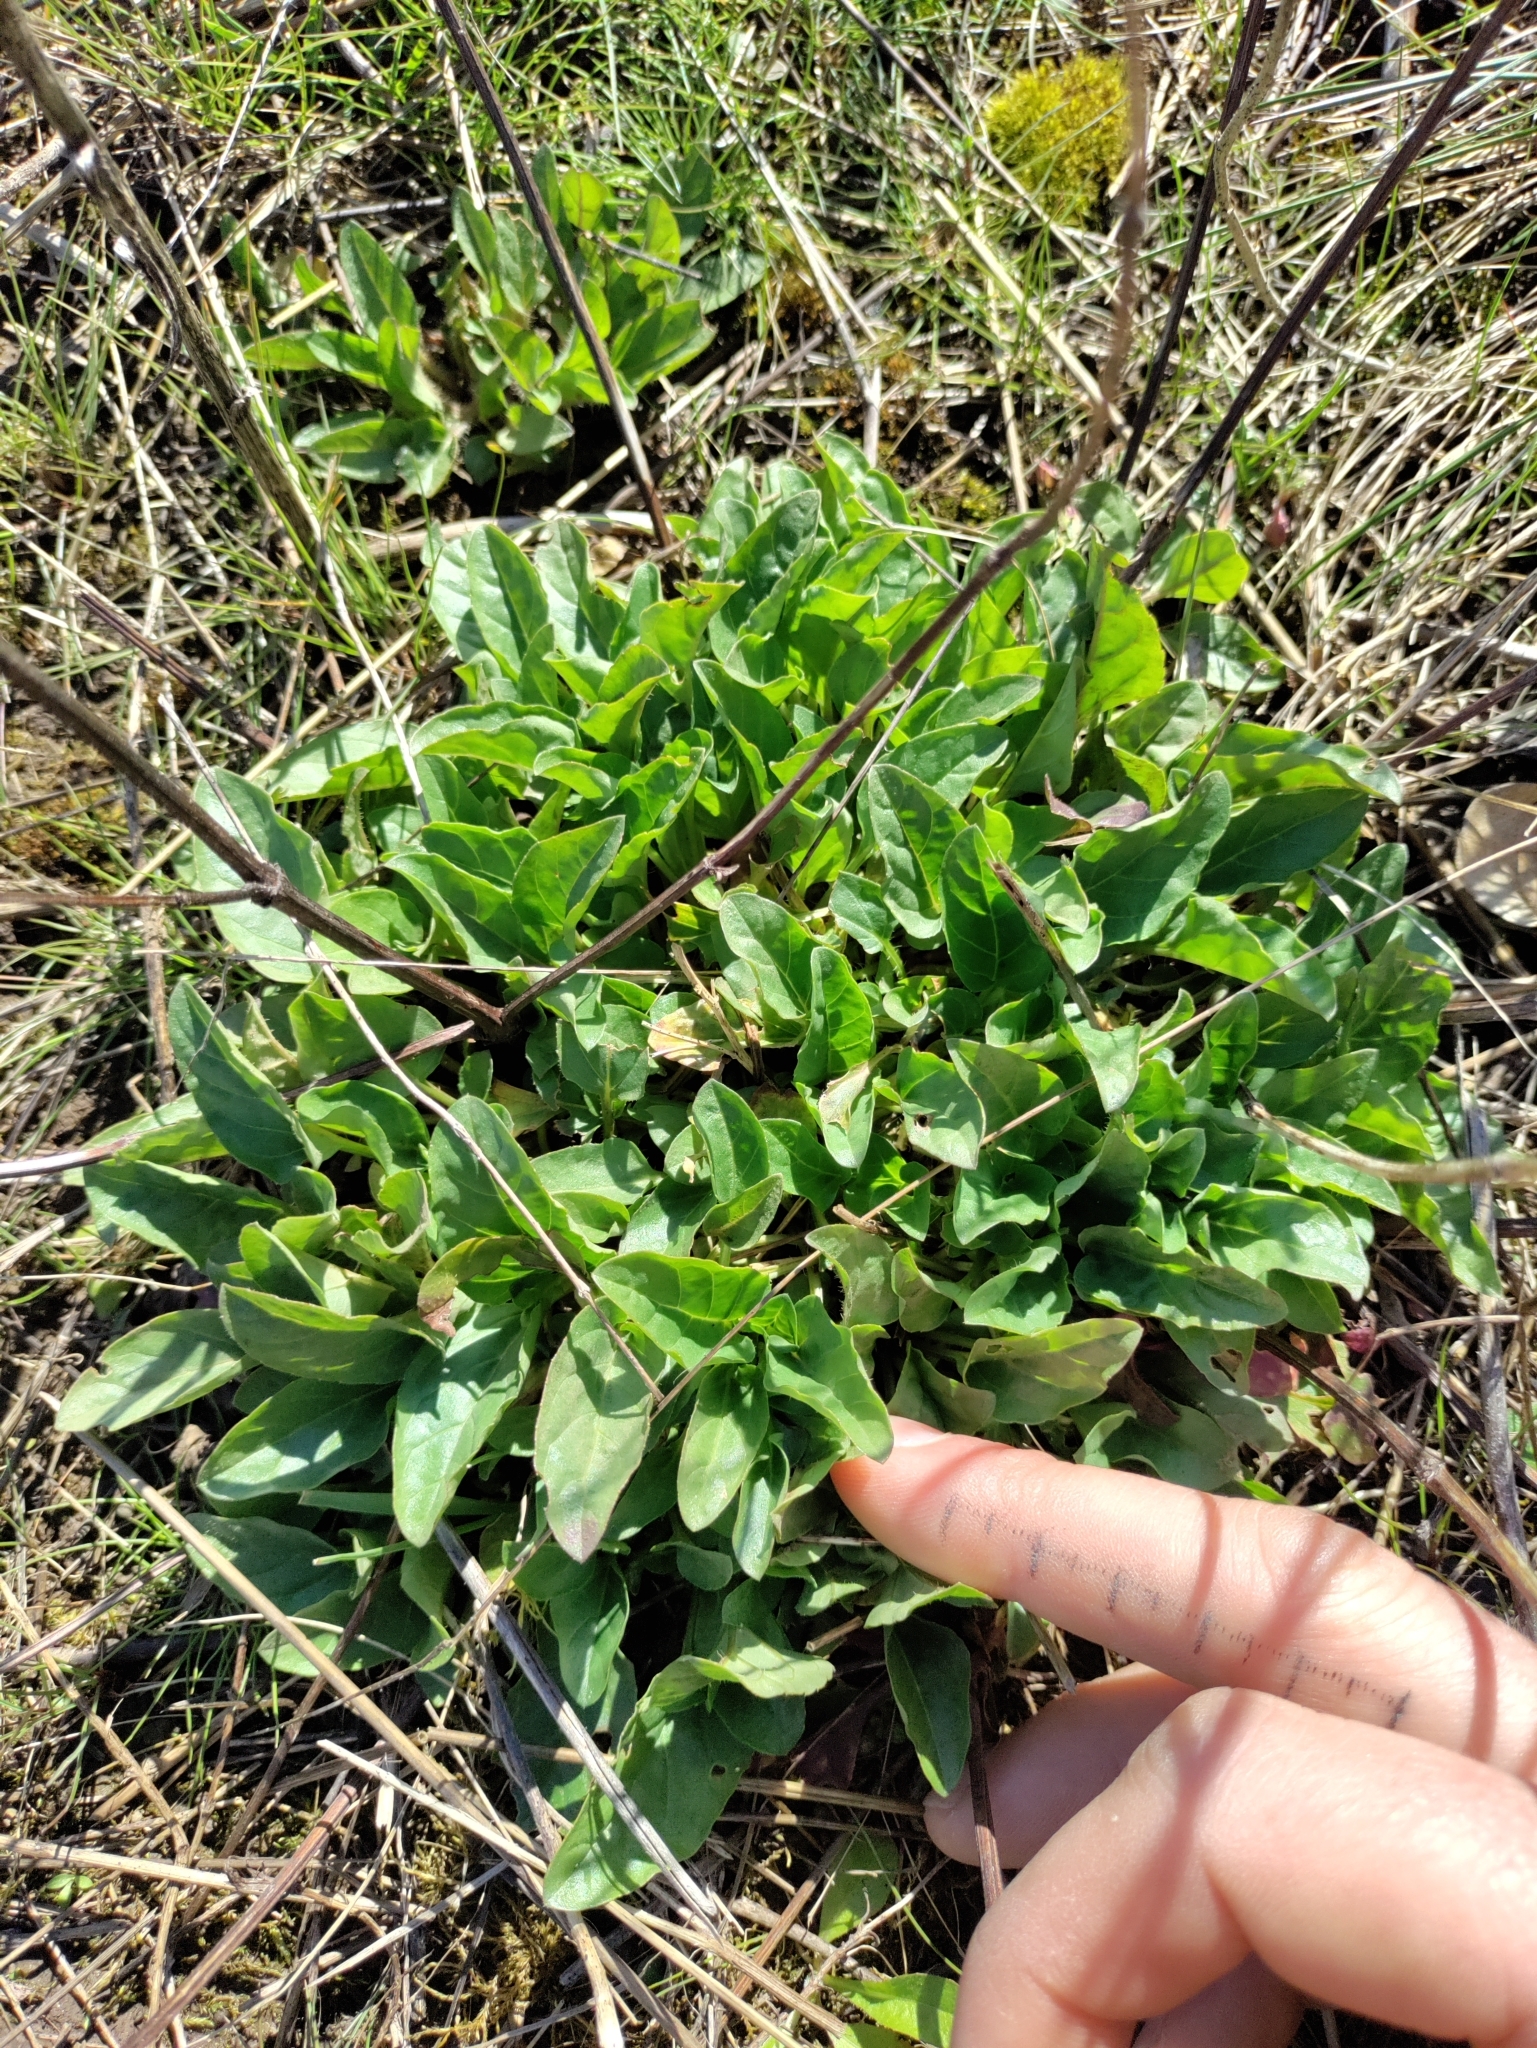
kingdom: Plantae
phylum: Tracheophyta
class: Magnoliopsida
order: Lamiales
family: Lamiaceae
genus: Prunella
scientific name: Prunella vulgaris
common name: Heal-all
